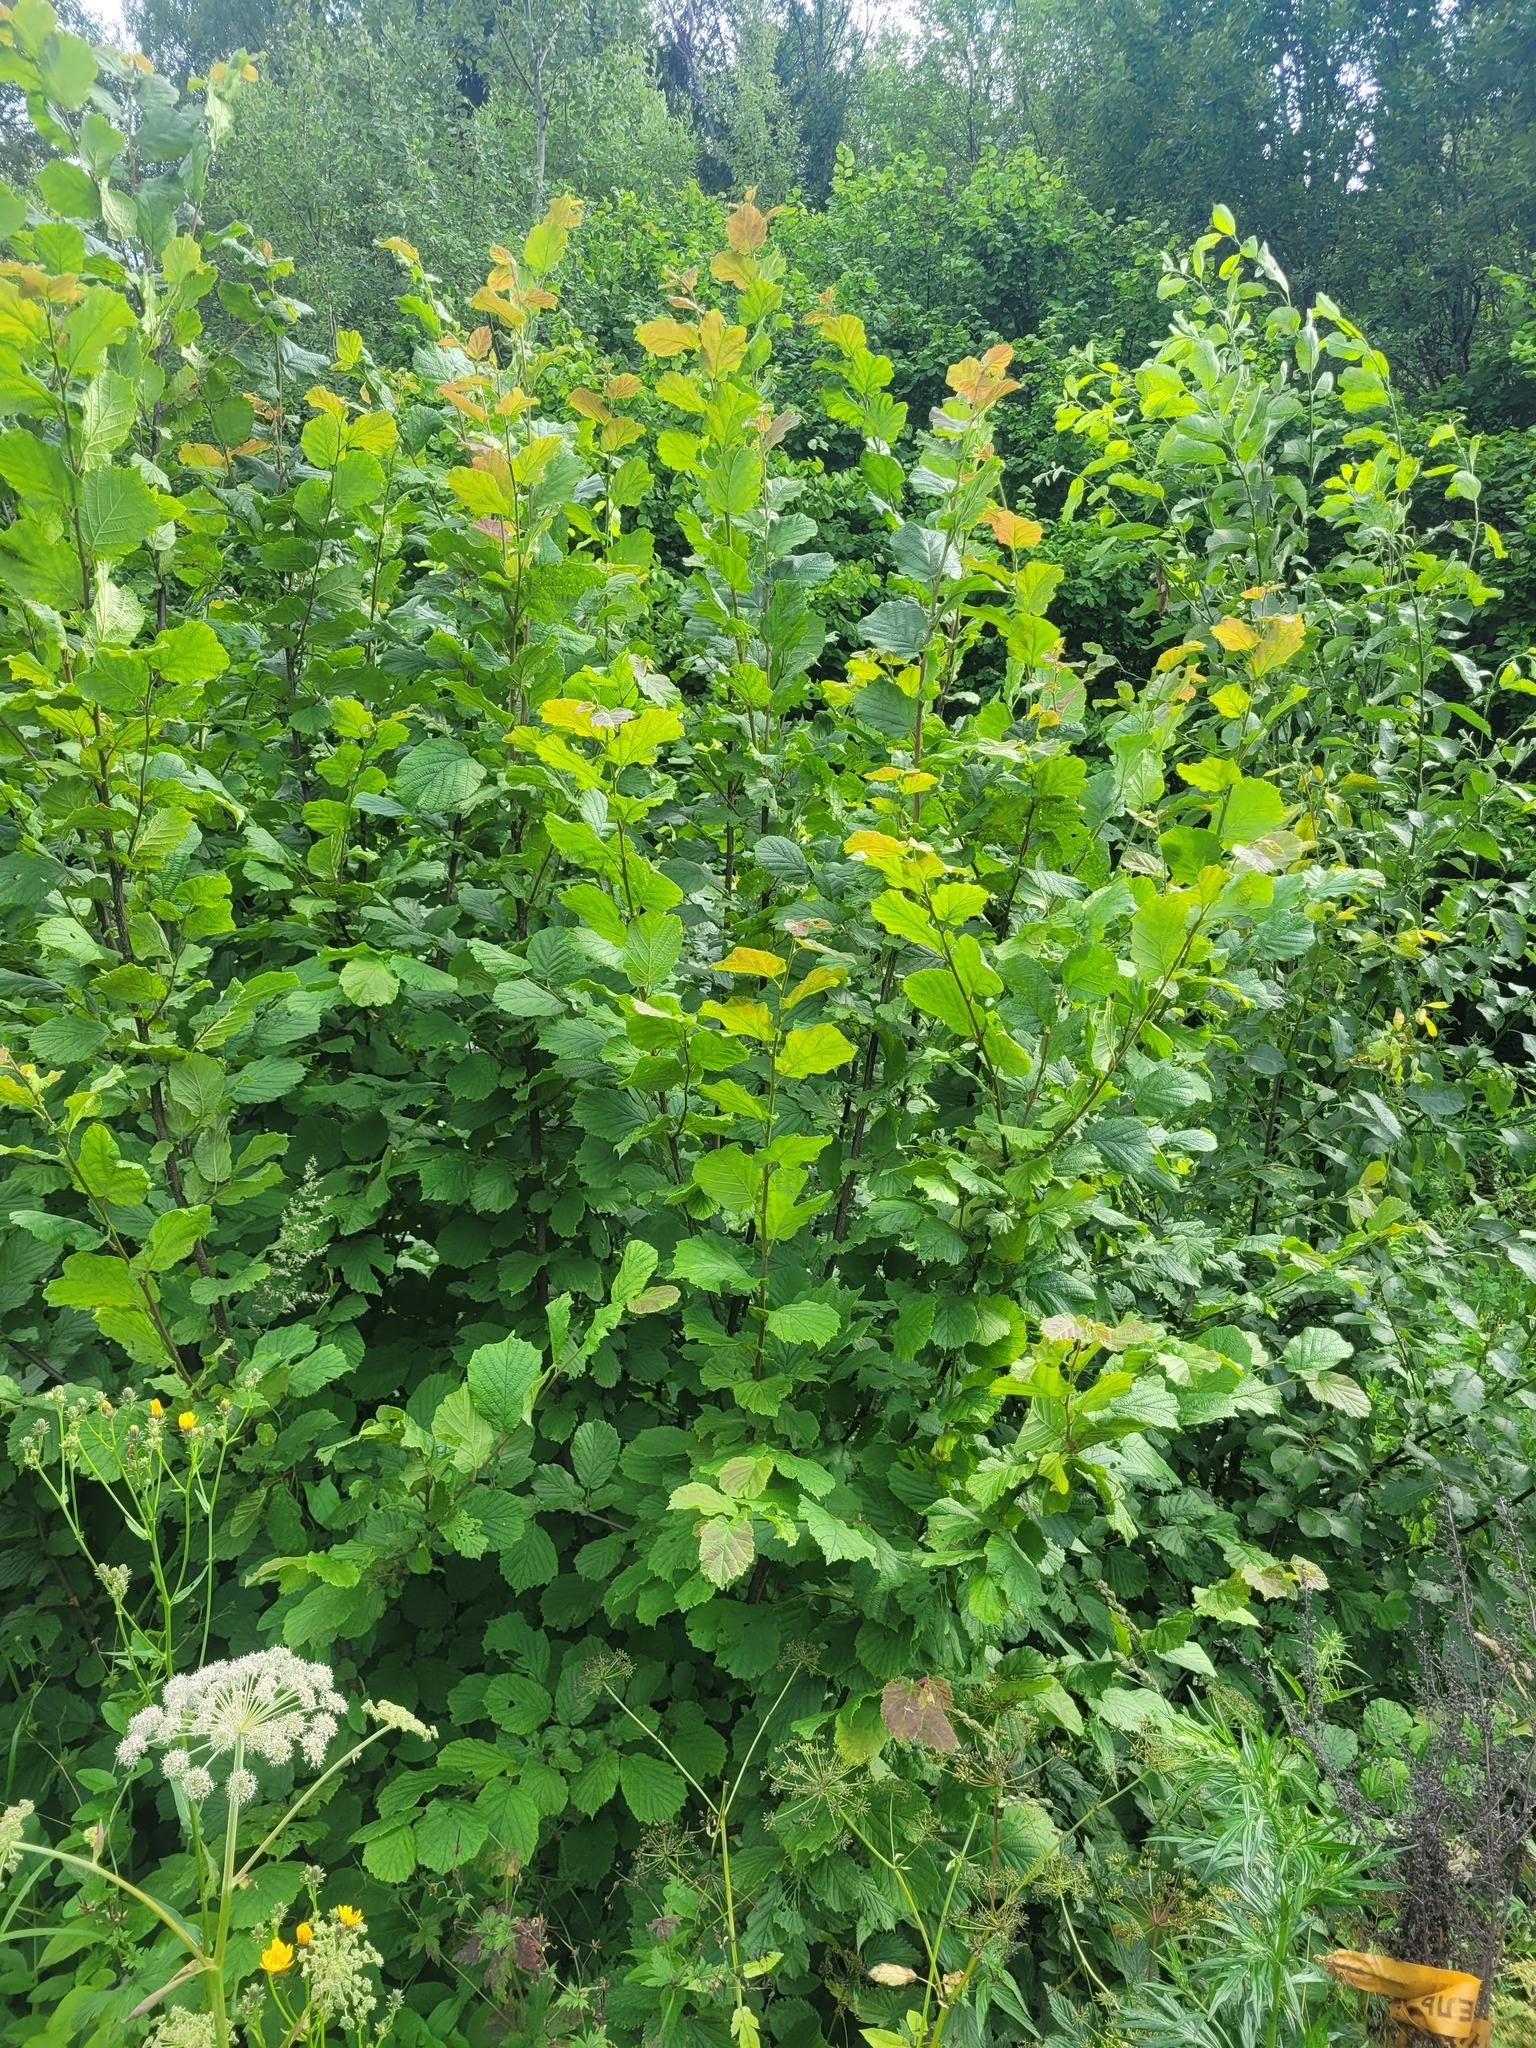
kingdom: Plantae
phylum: Tracheophyta
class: Magnoliopsida
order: Fagales
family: Betulaceae
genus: Corylus
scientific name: Corylus avellana
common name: European hazel
